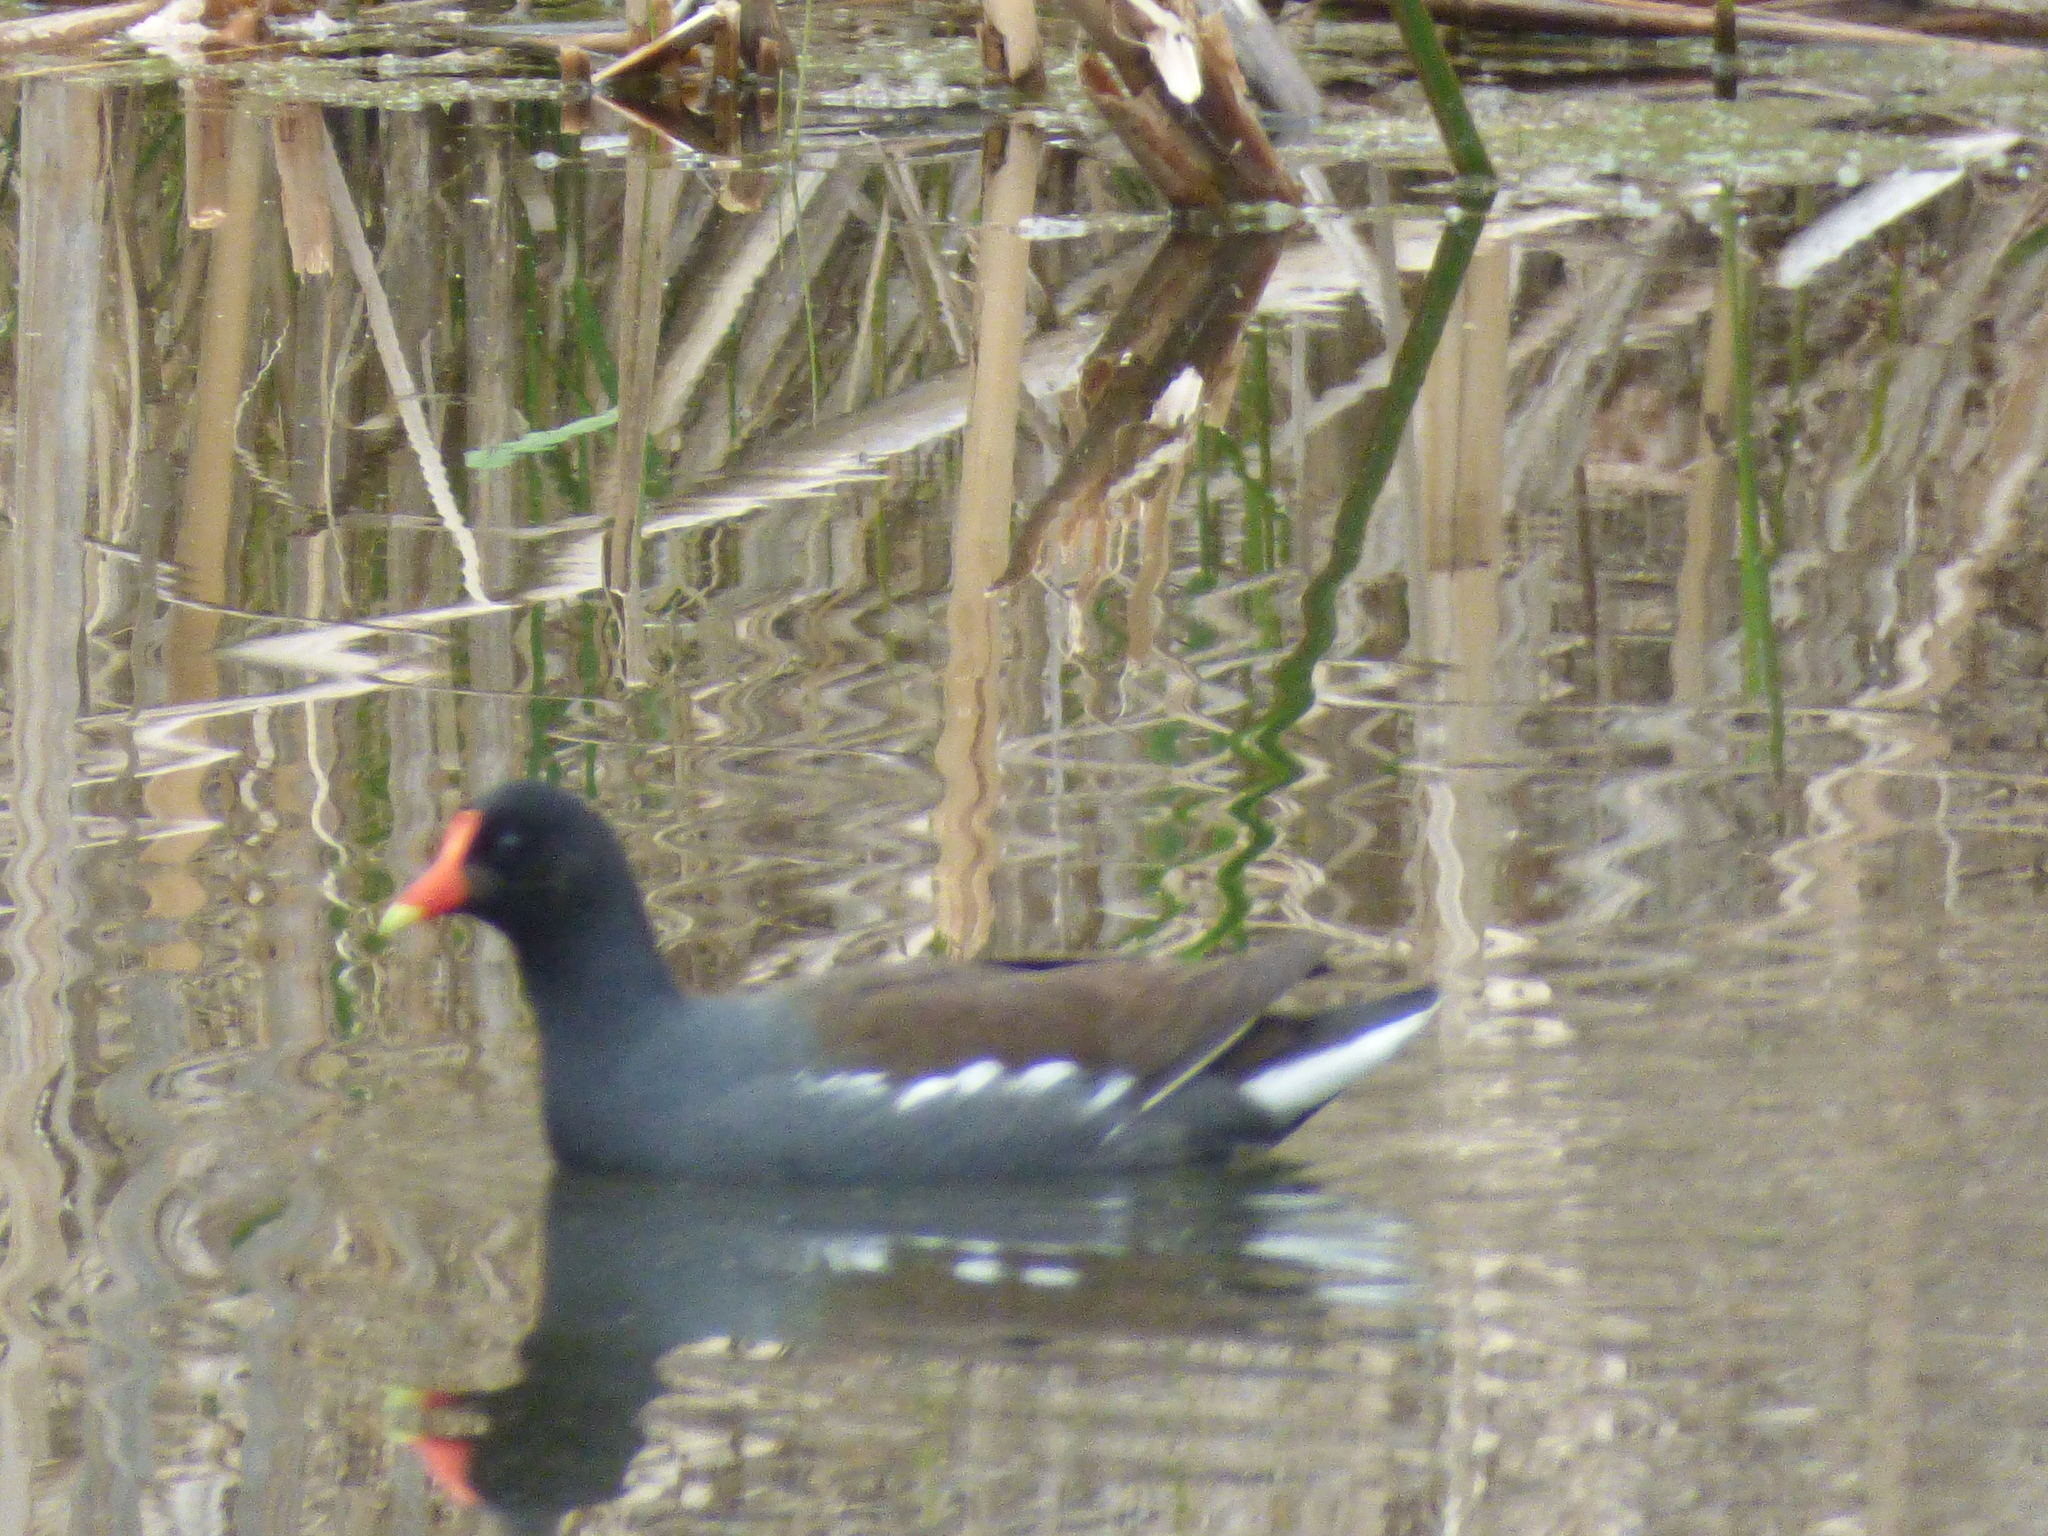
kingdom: Animalia
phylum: Chordata
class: Aves
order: Gruiformes
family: Rallidae
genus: Gallinula
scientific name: Gallinula chloropus
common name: Common moorhen
